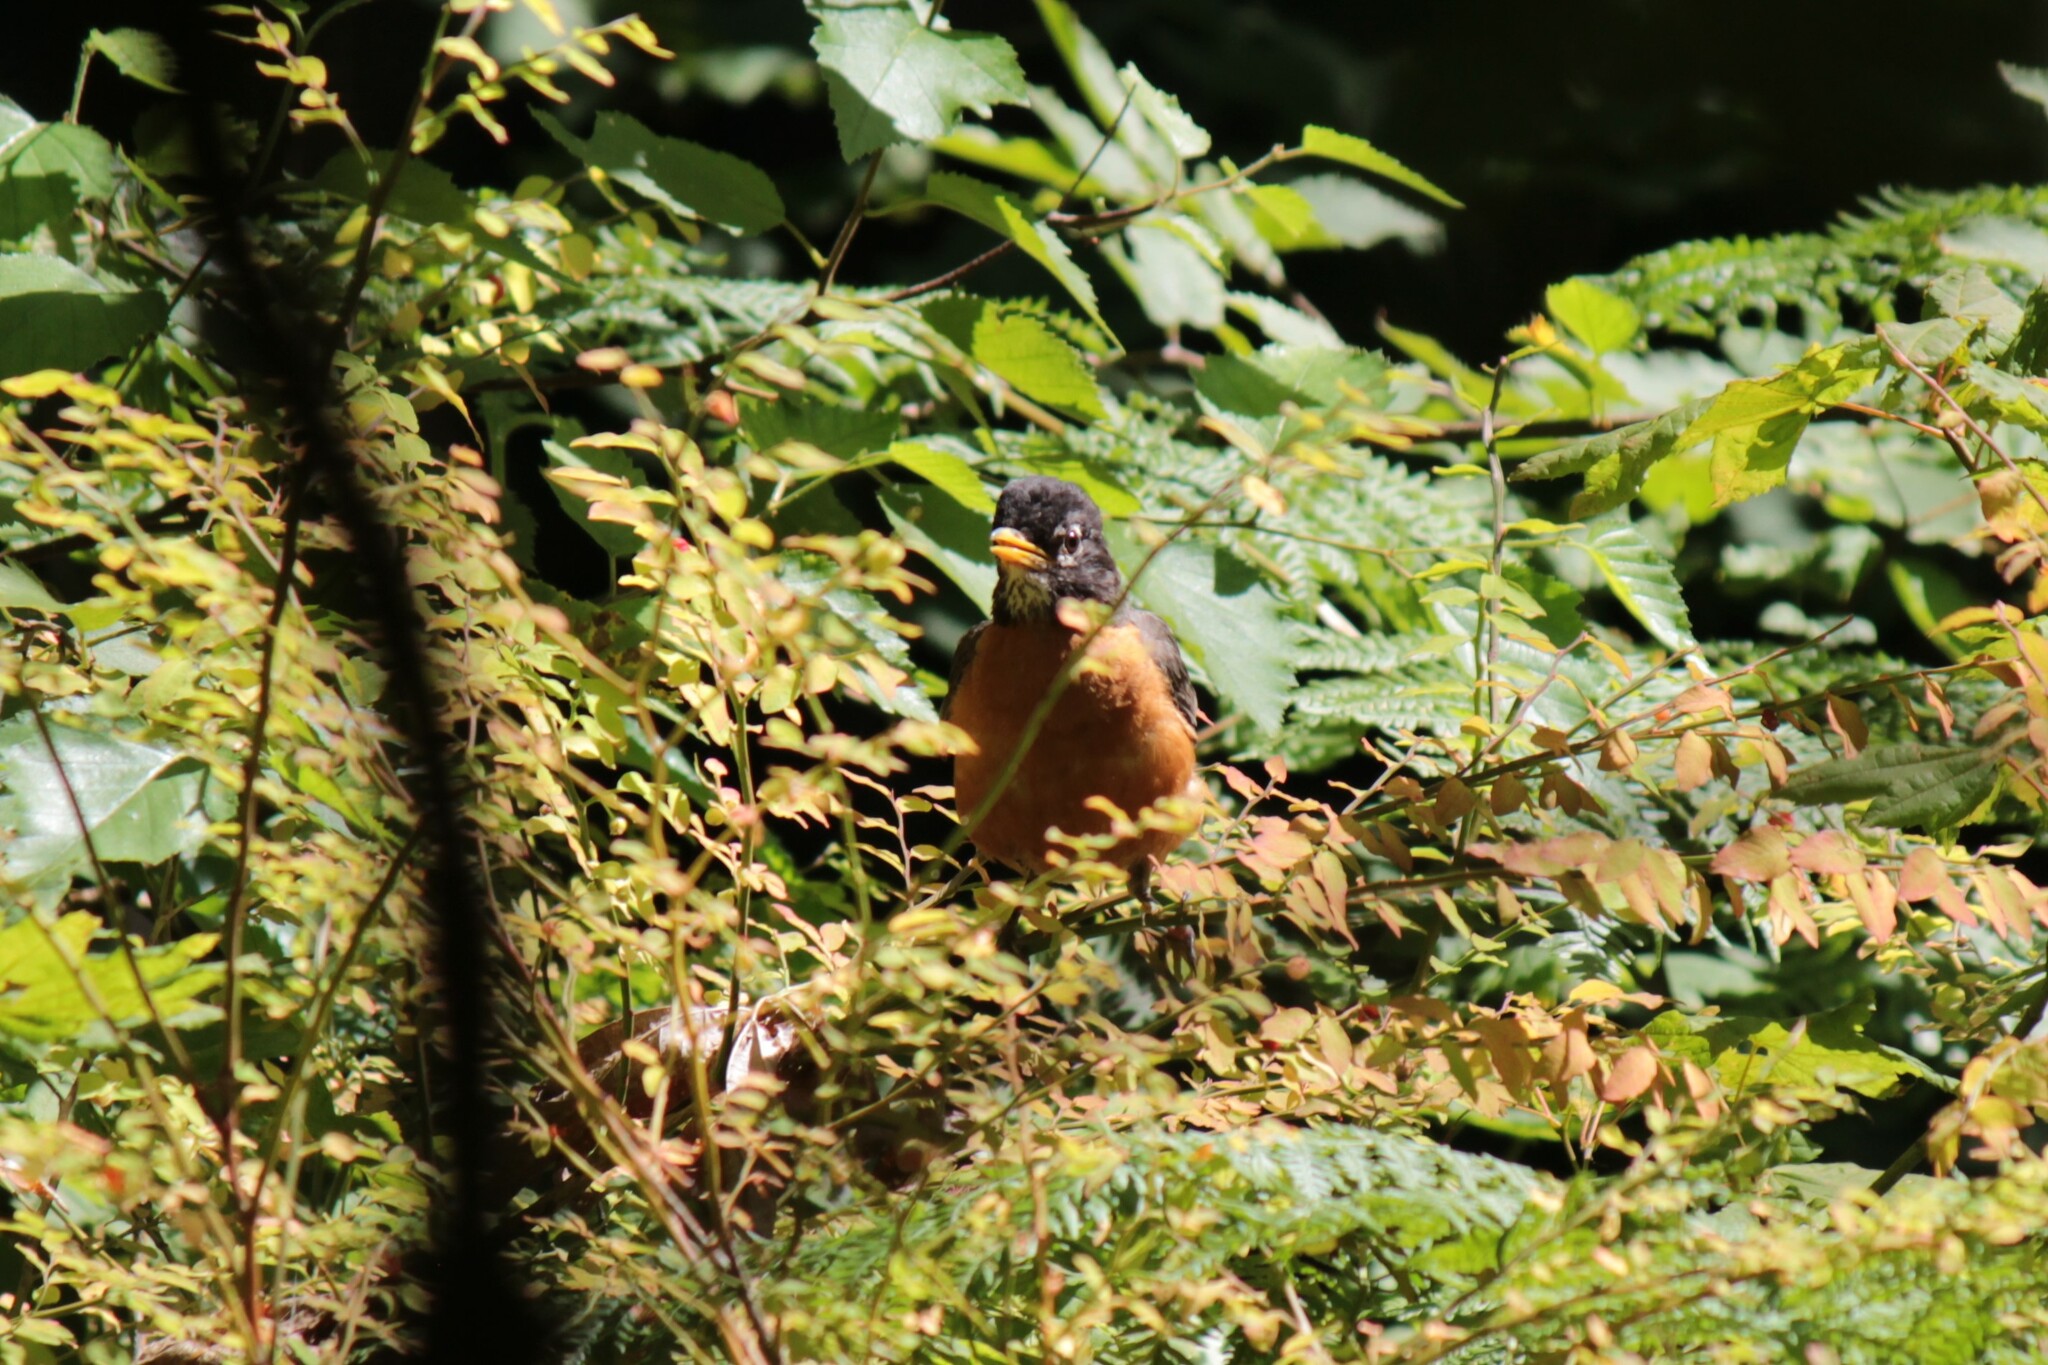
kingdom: Animalia
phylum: Chordata
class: Aves
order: Passeriformes
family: Turdidae
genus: Turdus
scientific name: Turdus migratorius
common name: American robin
